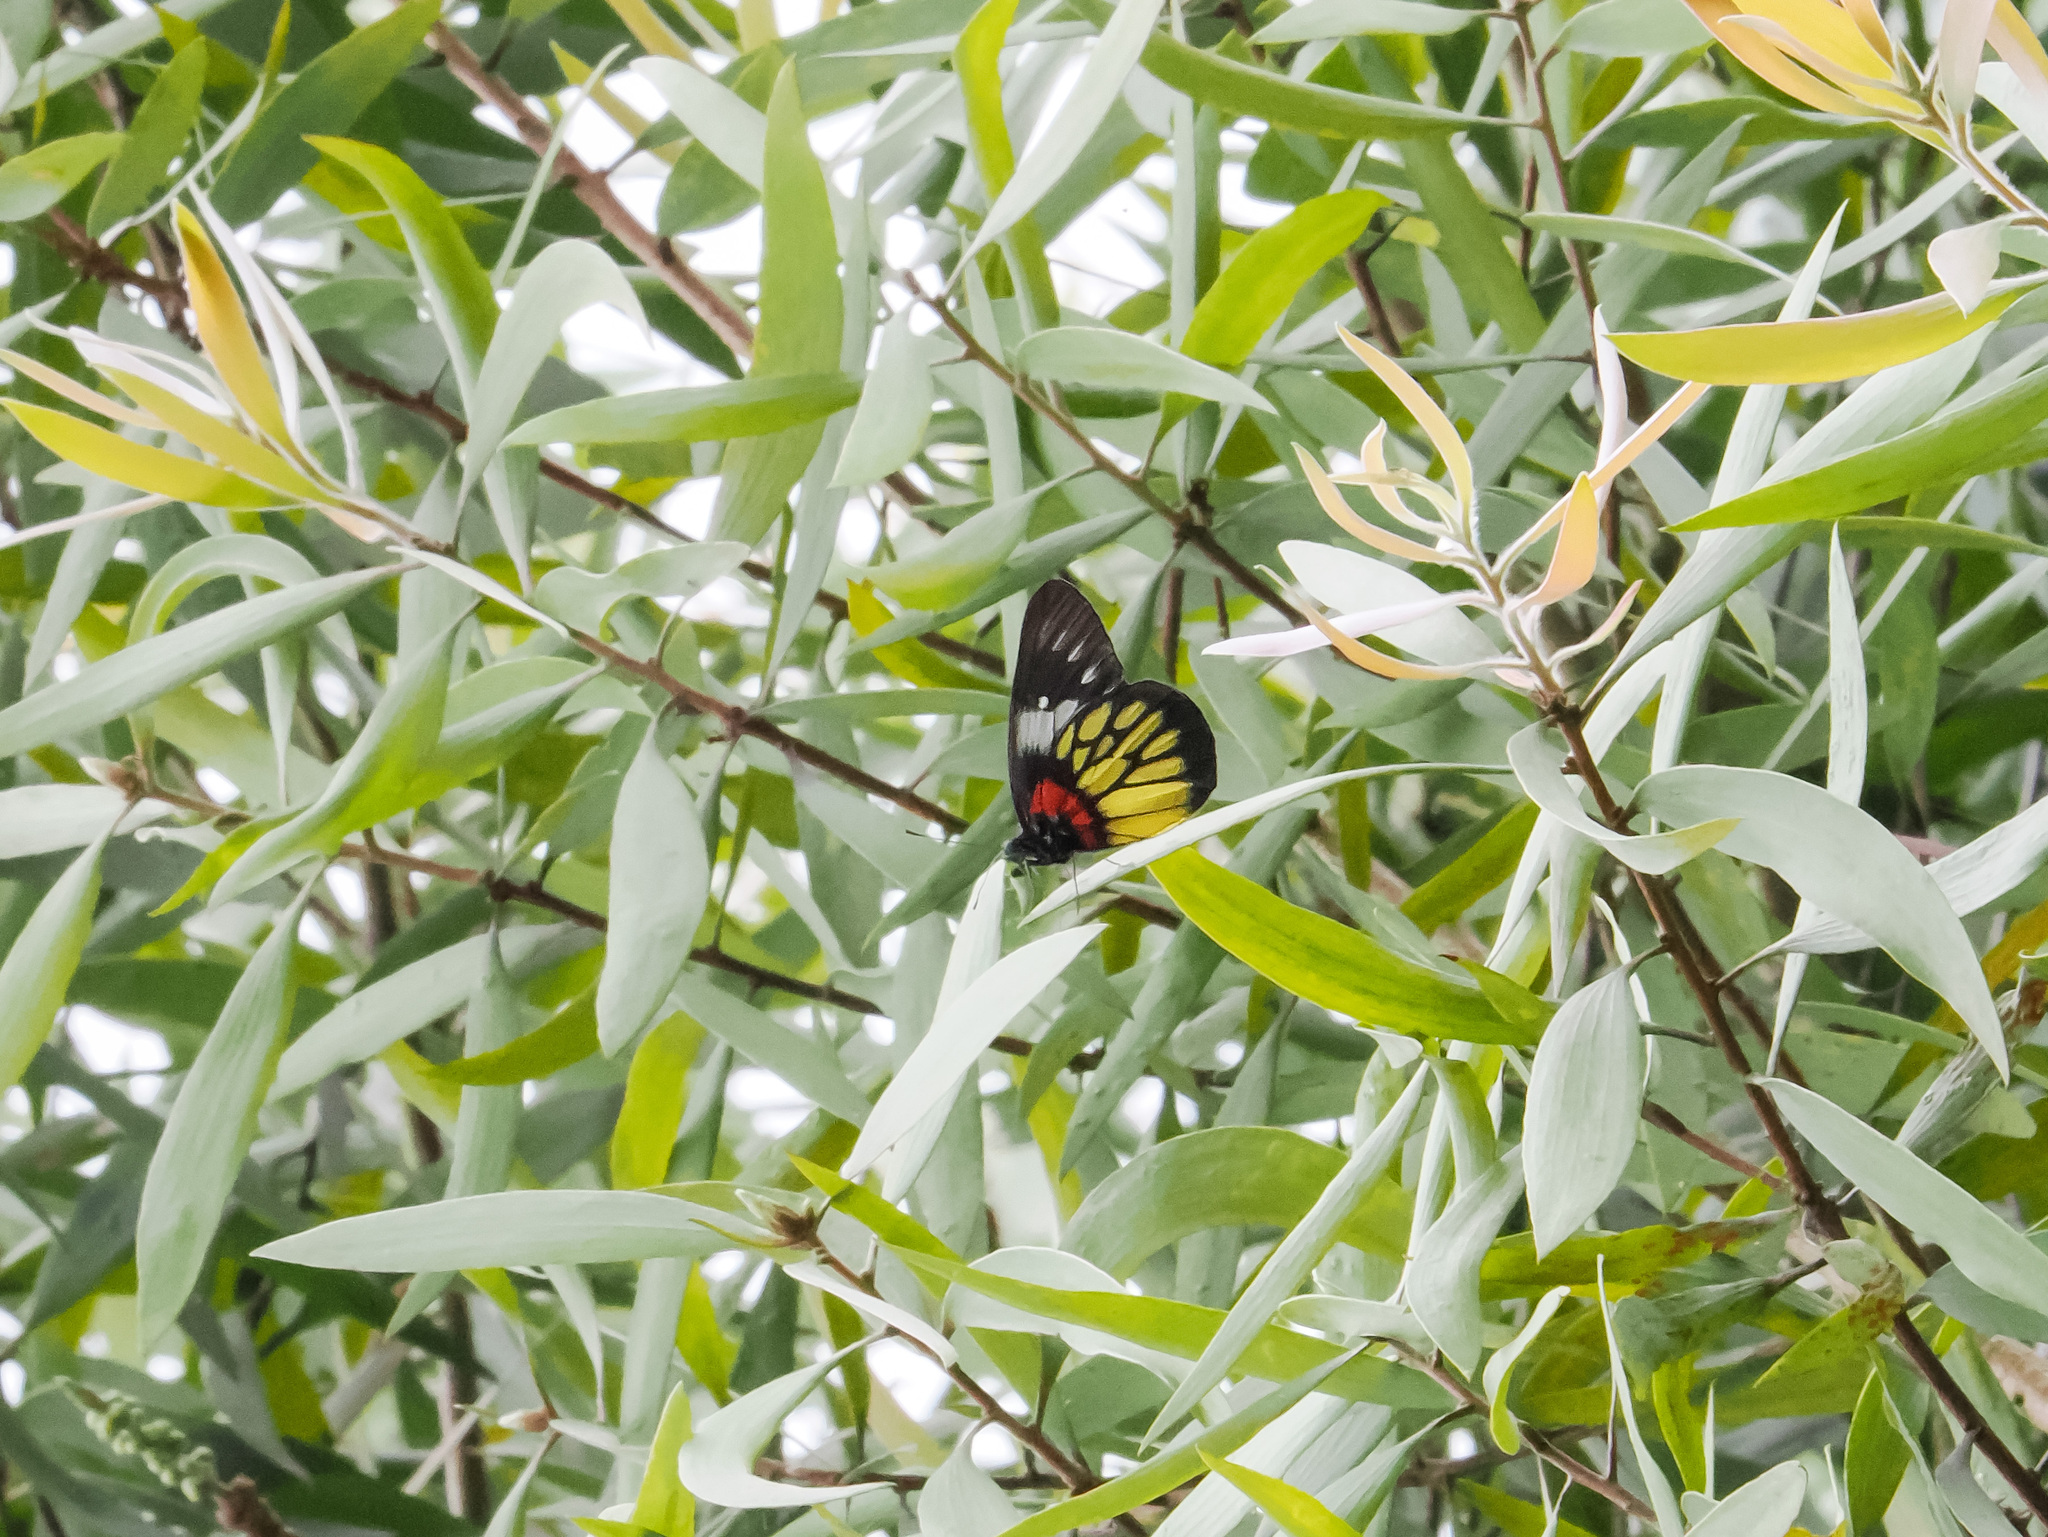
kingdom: Animalia
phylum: Arthropoda
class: Insecta
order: Lepidoptera
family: Pieridae
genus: Delias
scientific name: Delias pasithoe
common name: Red-base jezebel
